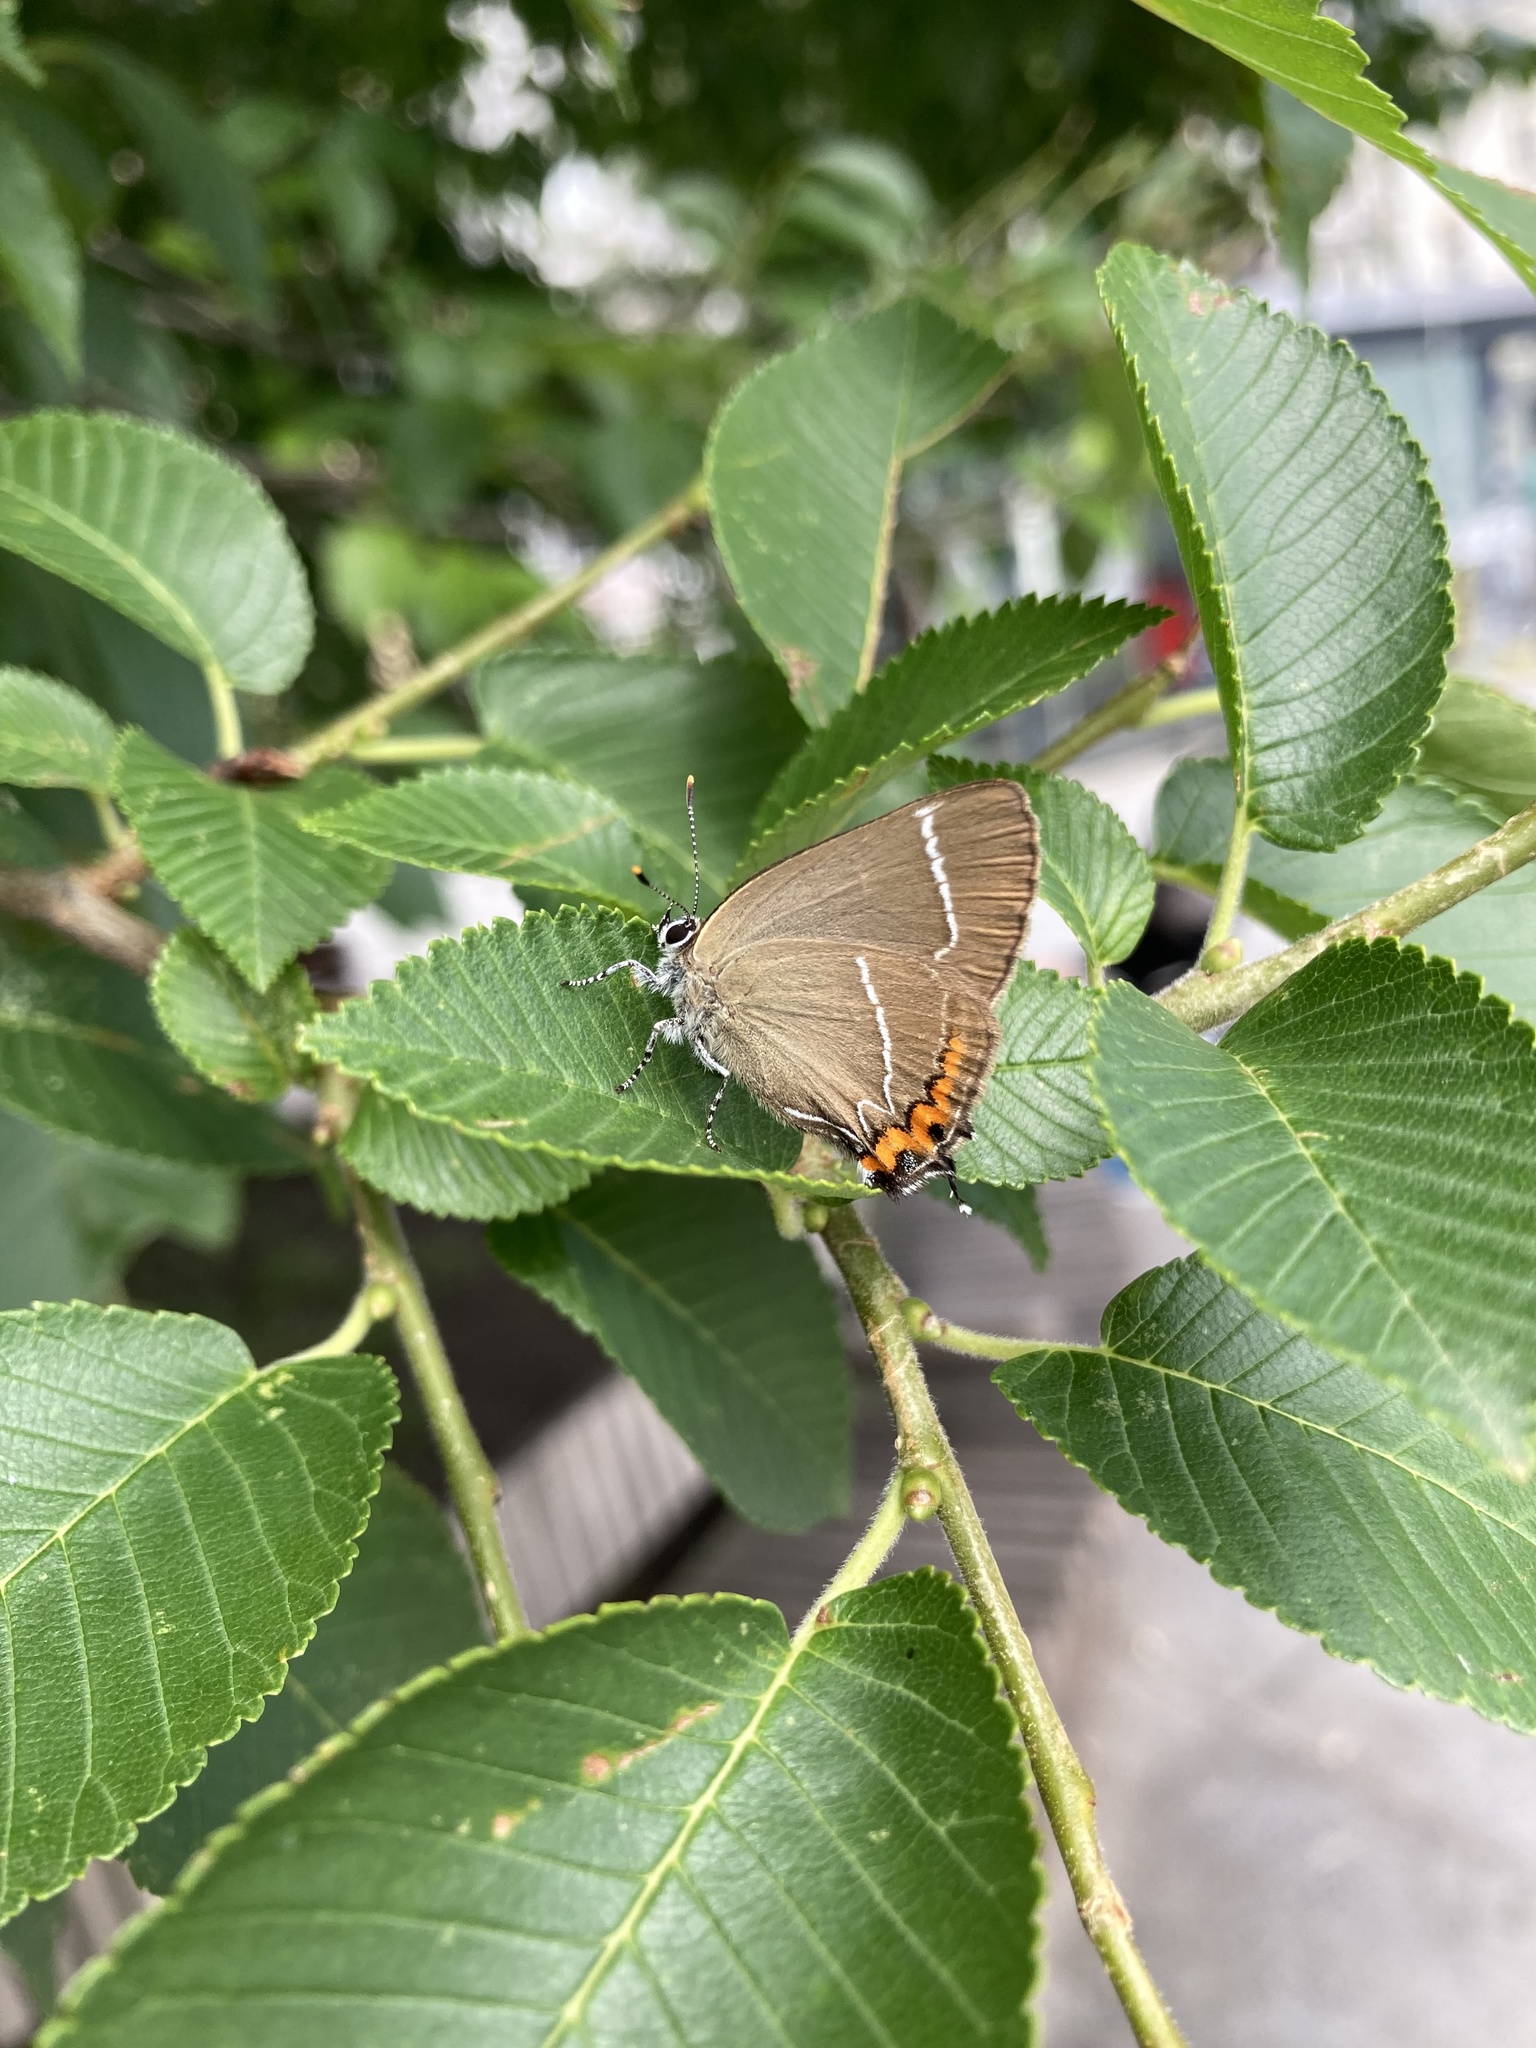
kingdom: Animalia
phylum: Arthropoda
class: Insecta
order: Lepidoptera
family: Lycaenidae
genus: Satyrium
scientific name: Satyrium w-album
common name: White-letter hairstreak
